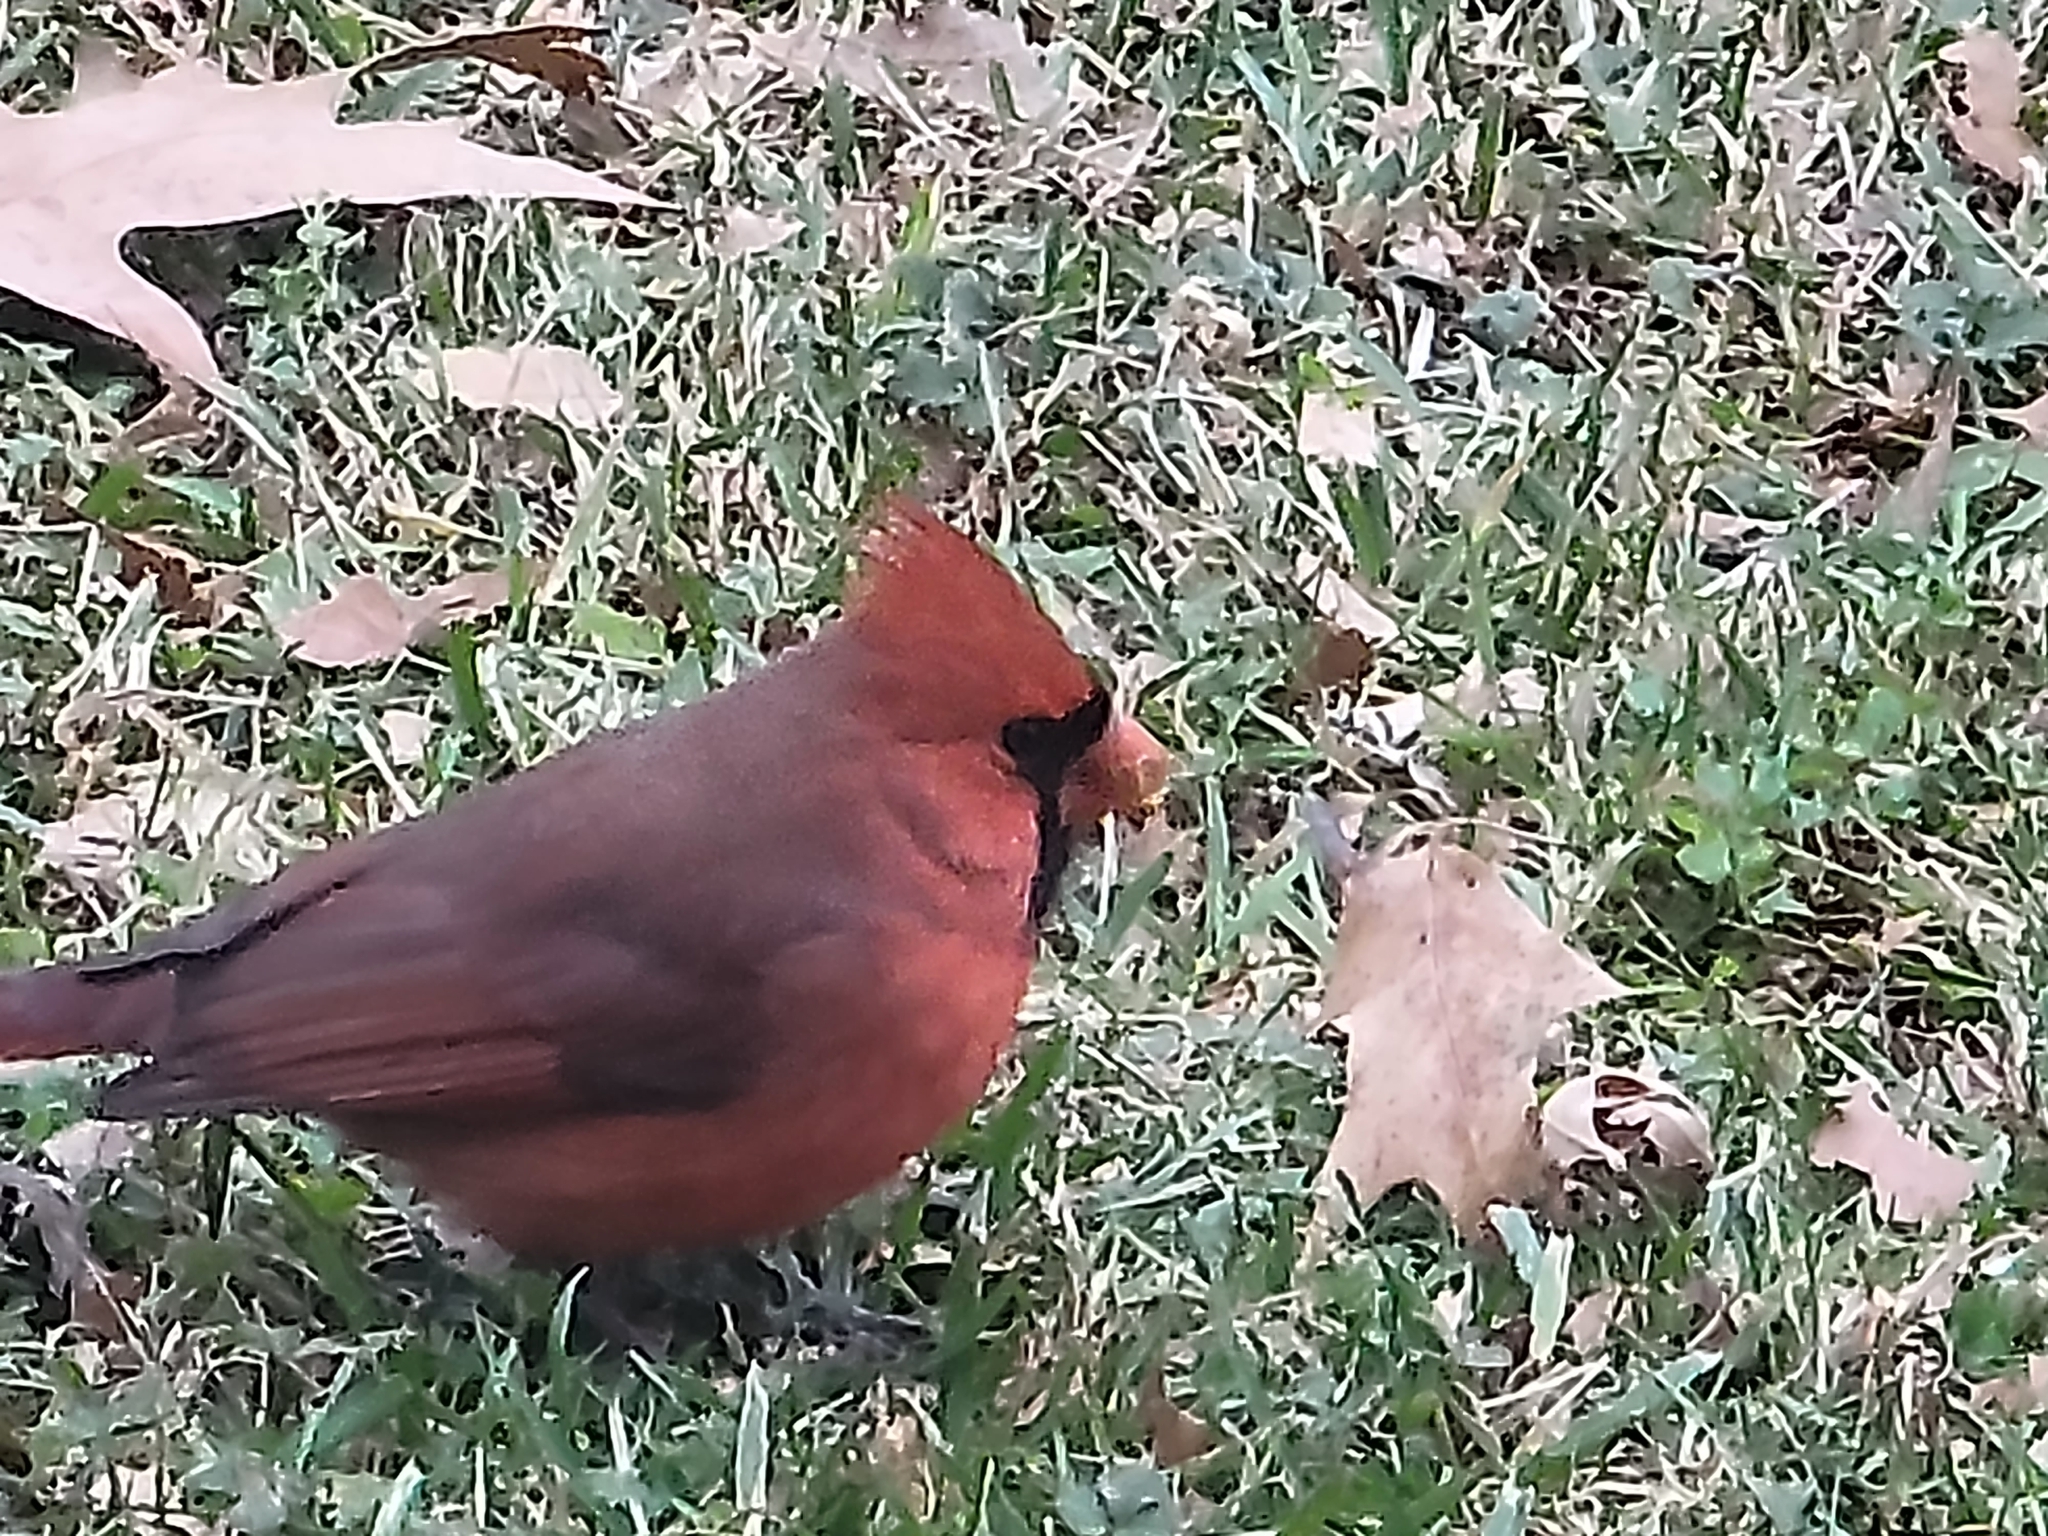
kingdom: Animalia
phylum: Chordata
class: Aves
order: Passeriformes
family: Cardinalidae
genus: Cardinalis
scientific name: Cardinalis cardinalis
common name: Northern cardinal
